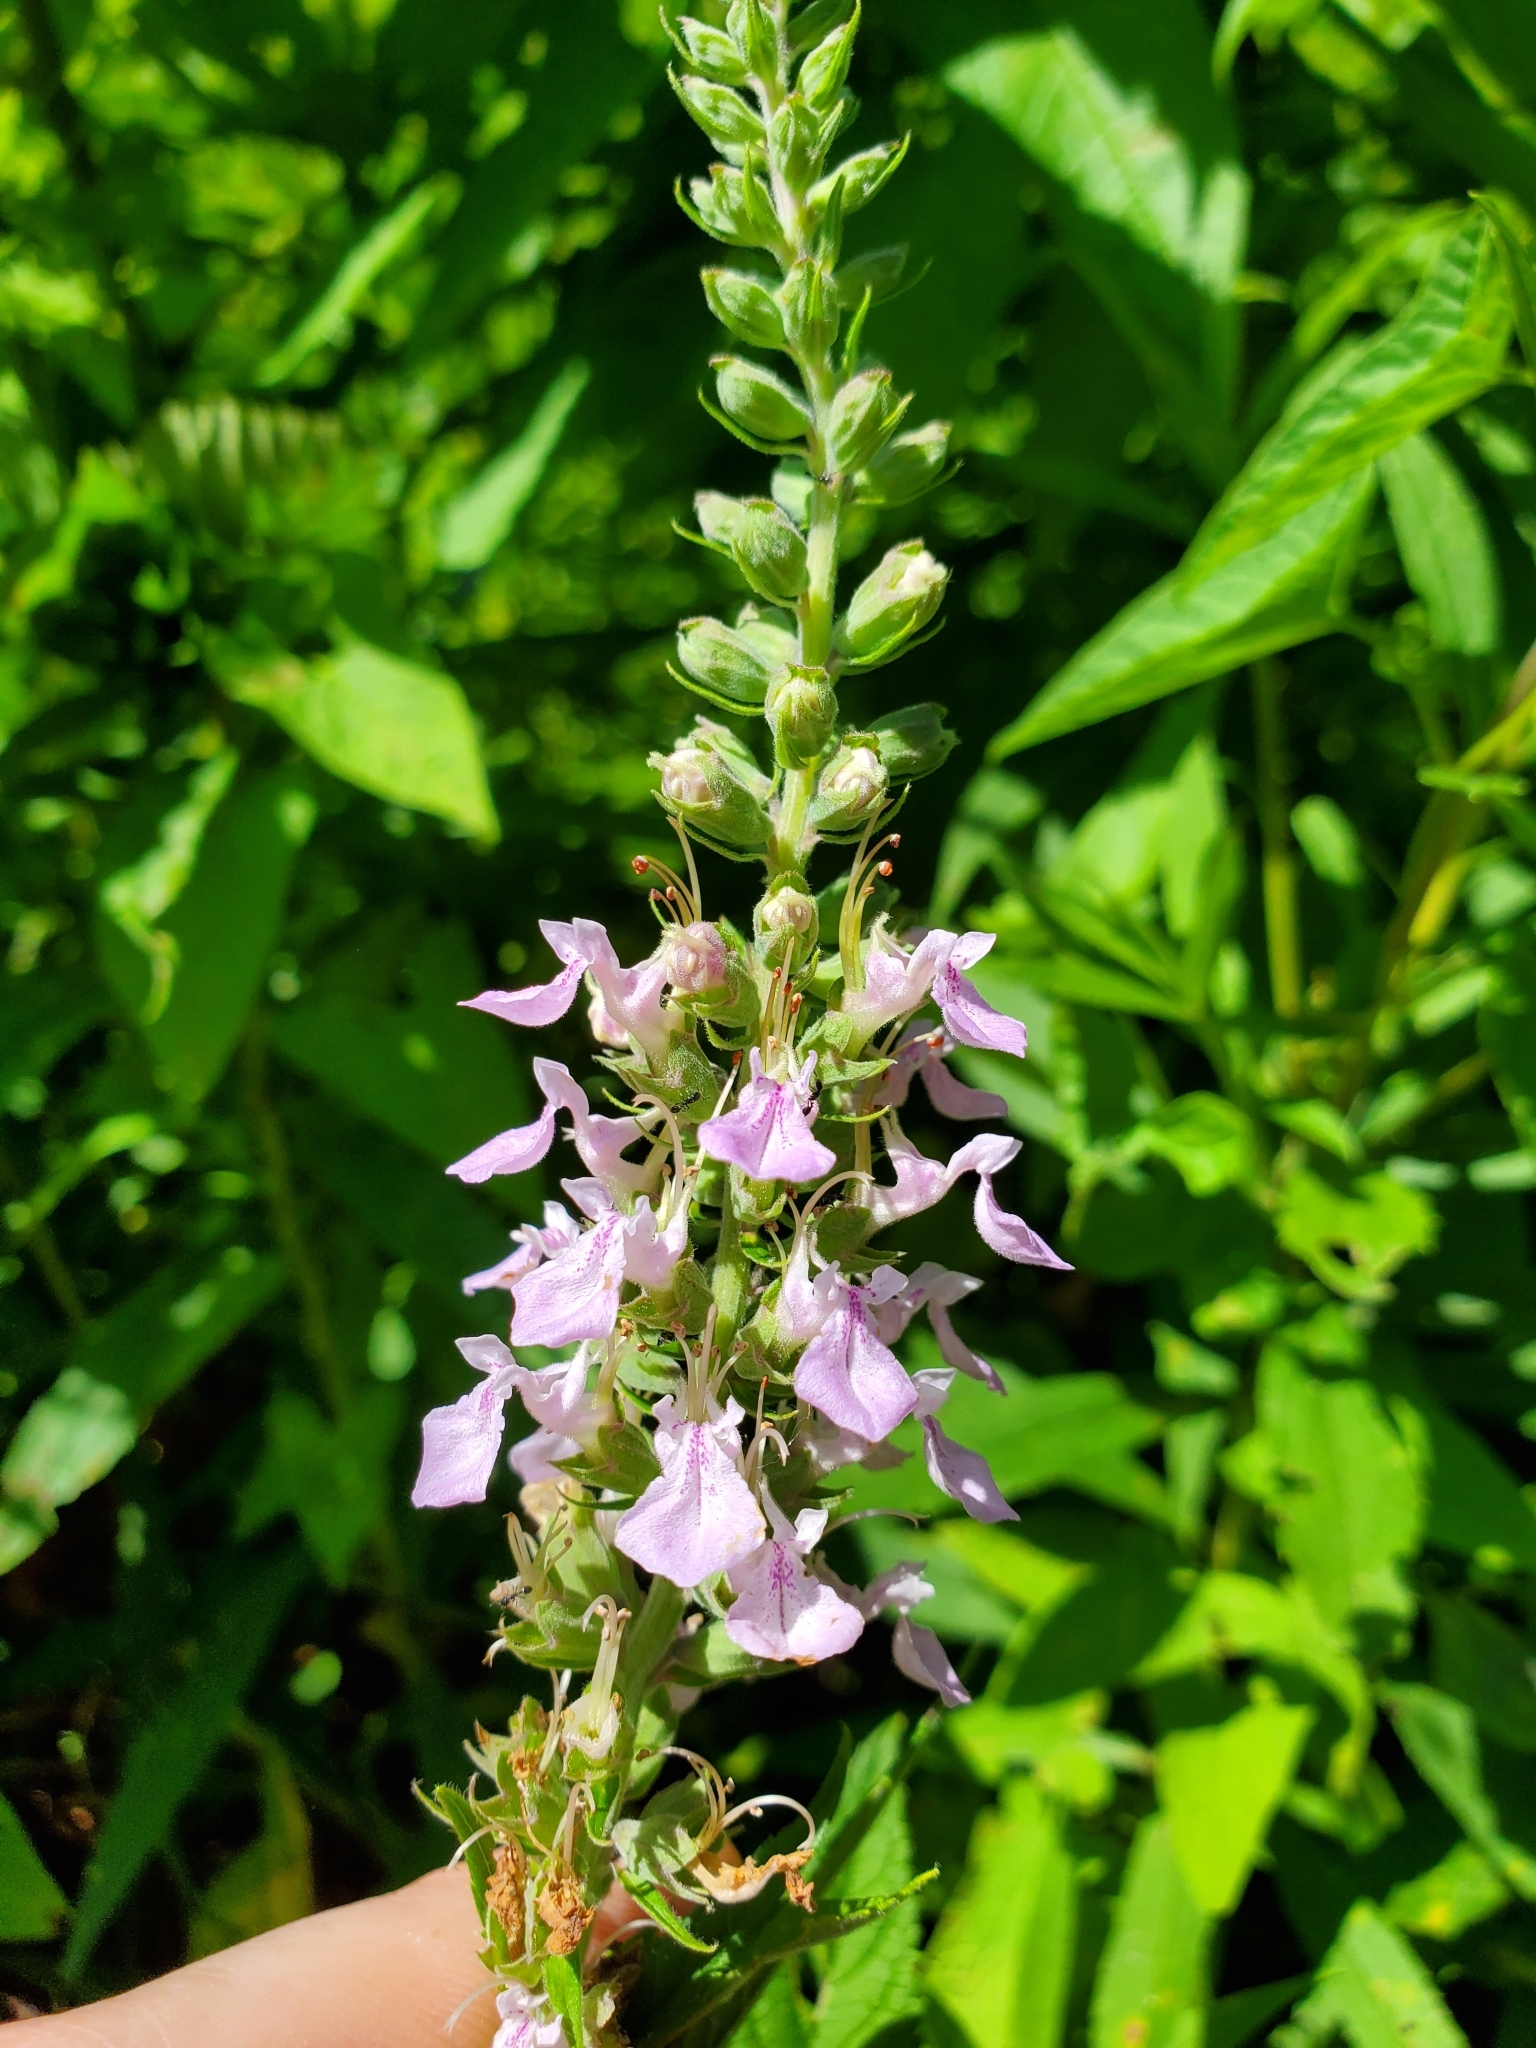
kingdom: Plantae
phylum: Tracheophyta
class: Magnoliopsida
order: Lamiales
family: Lamiaceae
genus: Teucrium
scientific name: Teucrium canadense
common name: American germander
